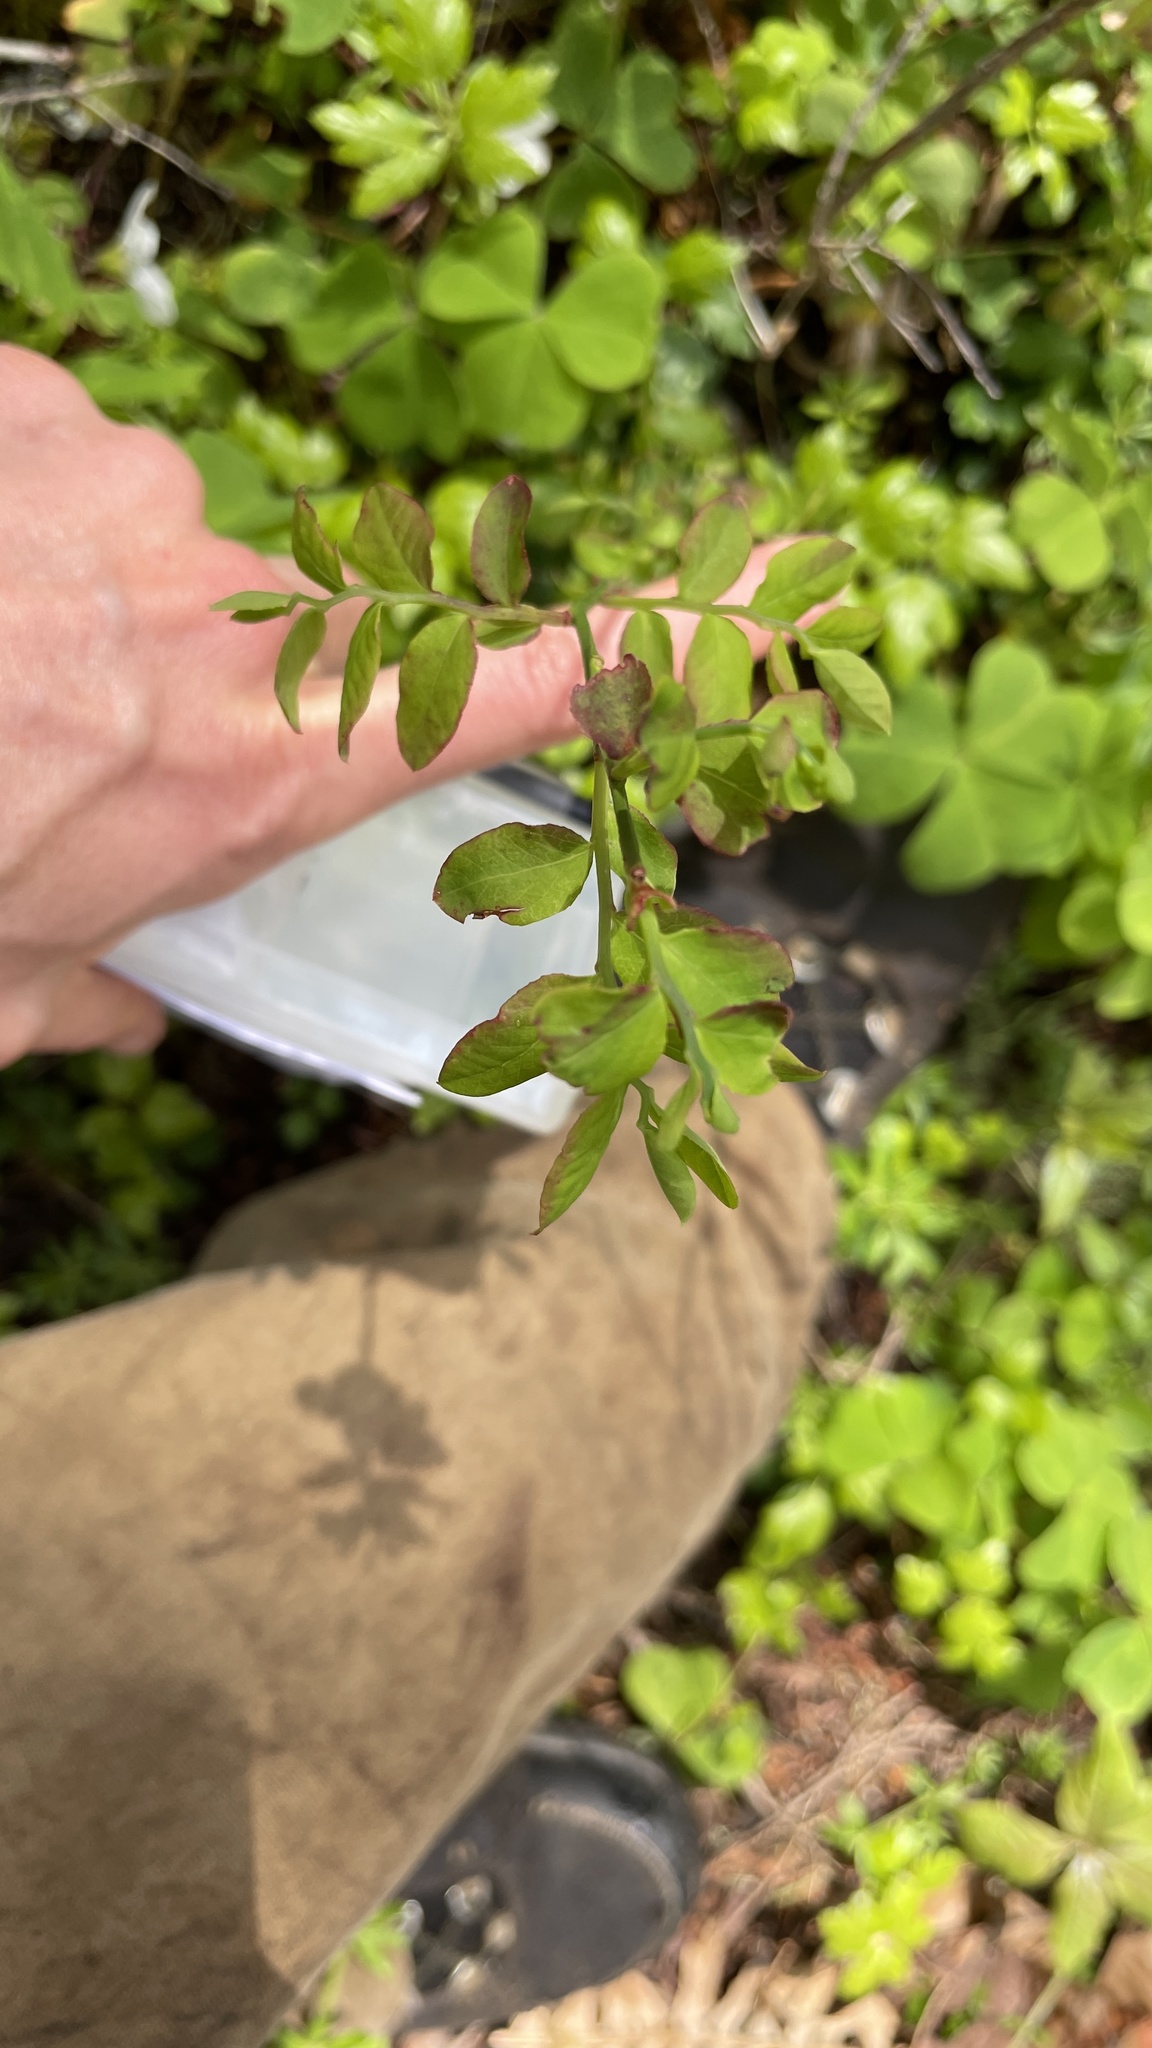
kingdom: Plantae
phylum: Tracheophyta
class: Magnoliopsida
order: Ericales
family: Ericaceae
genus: Vaccinium
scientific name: Vaccinium parvifolium
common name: Red-huckleberry
